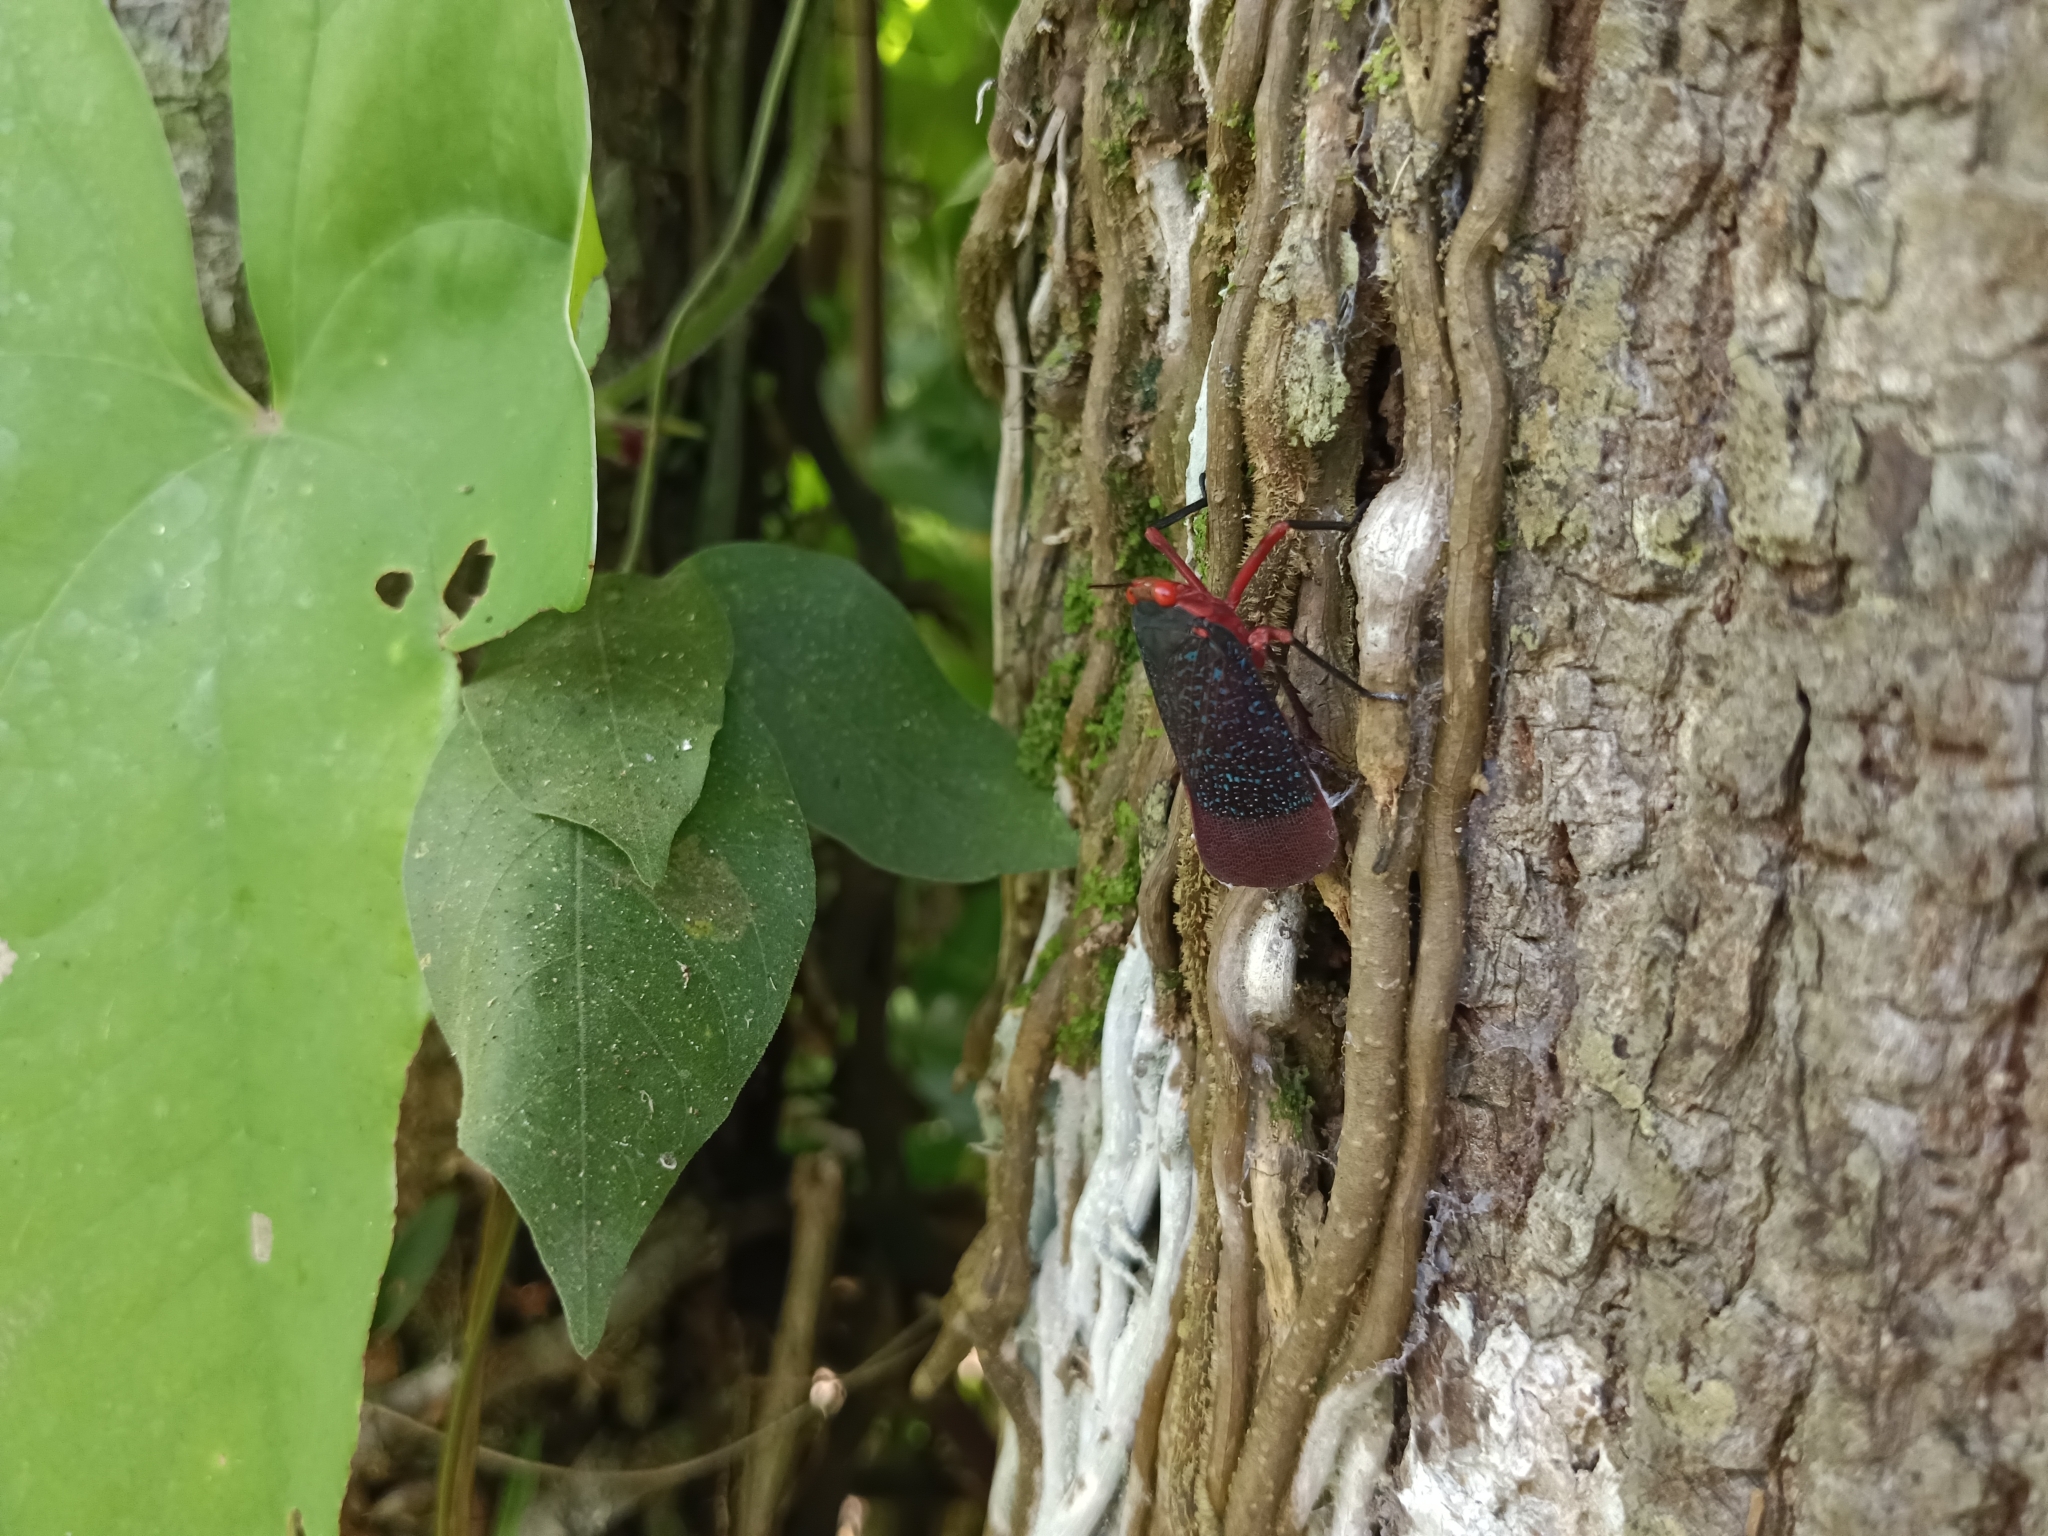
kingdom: Animalia
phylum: Arthropoda
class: Insecta
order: Hemiptera
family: Fulgoridae
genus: Kalidasa
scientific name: Kalidasa lanata
